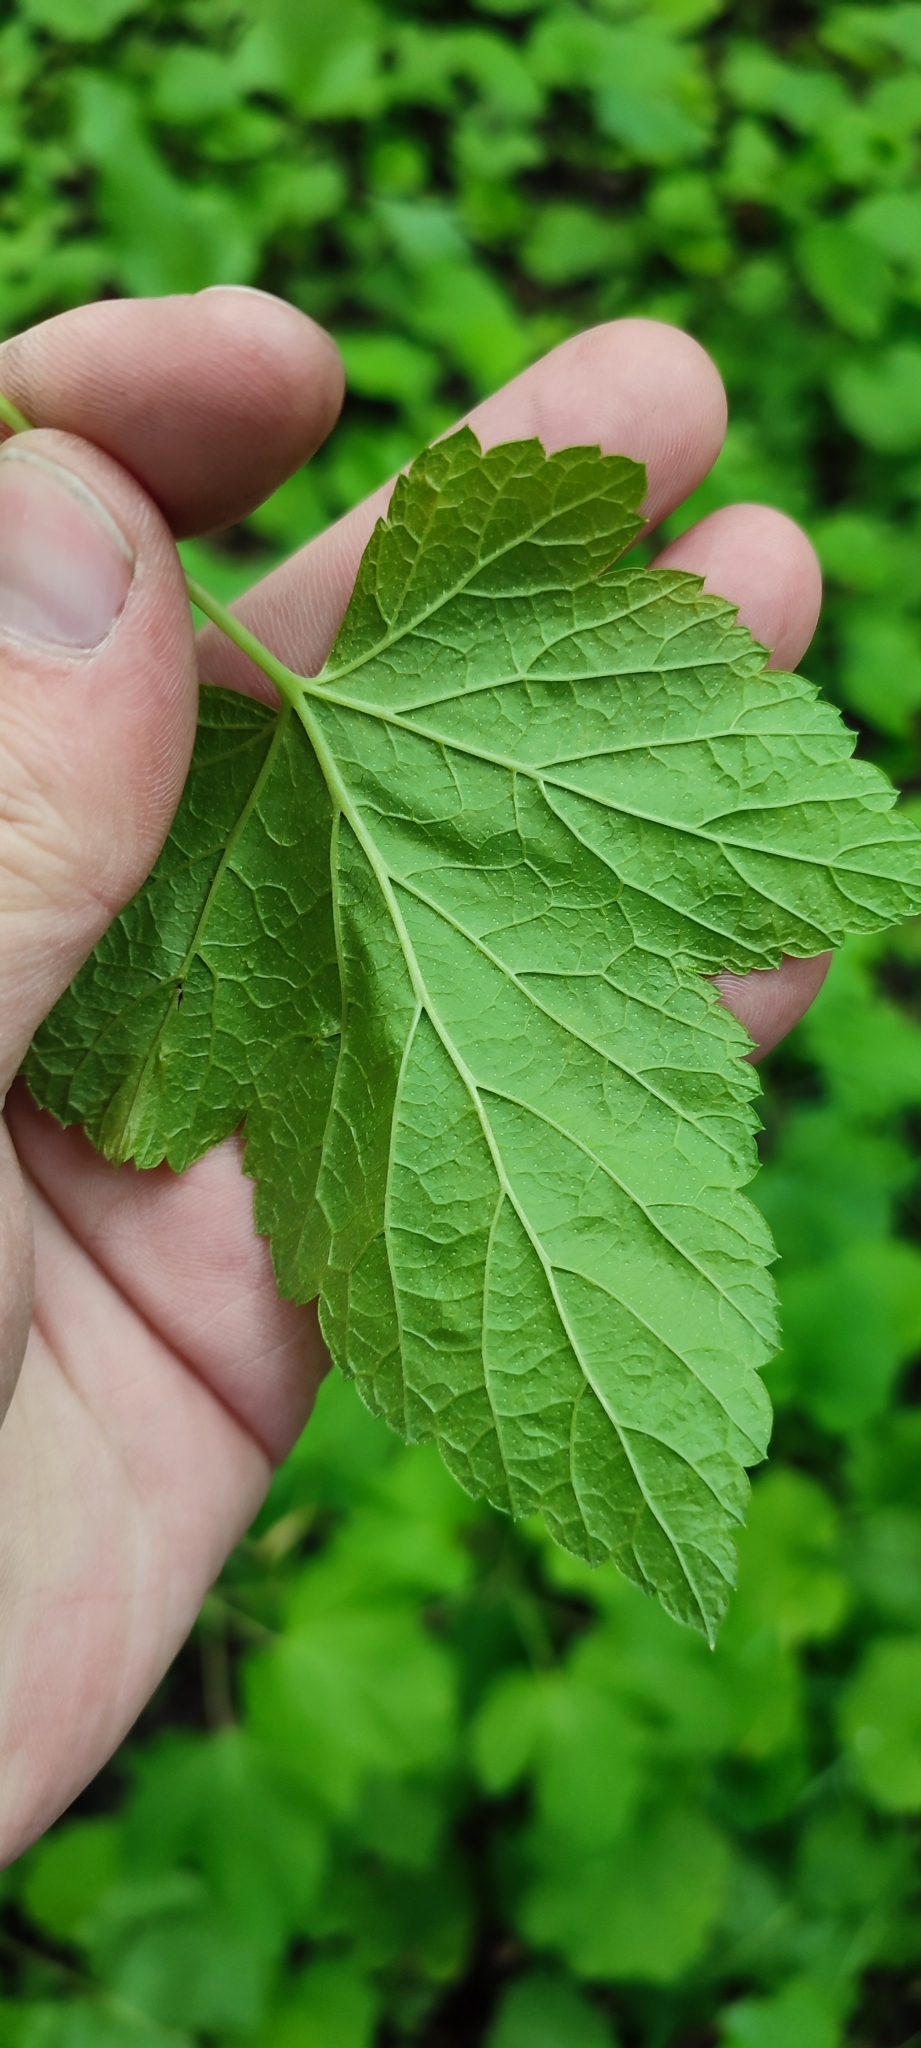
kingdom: Plantae
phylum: Tracheophyta
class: Magnoliopsida
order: Saxifragales
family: Grossulariaceae
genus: Ribes
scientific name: Ribes nigrum
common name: Black currant
